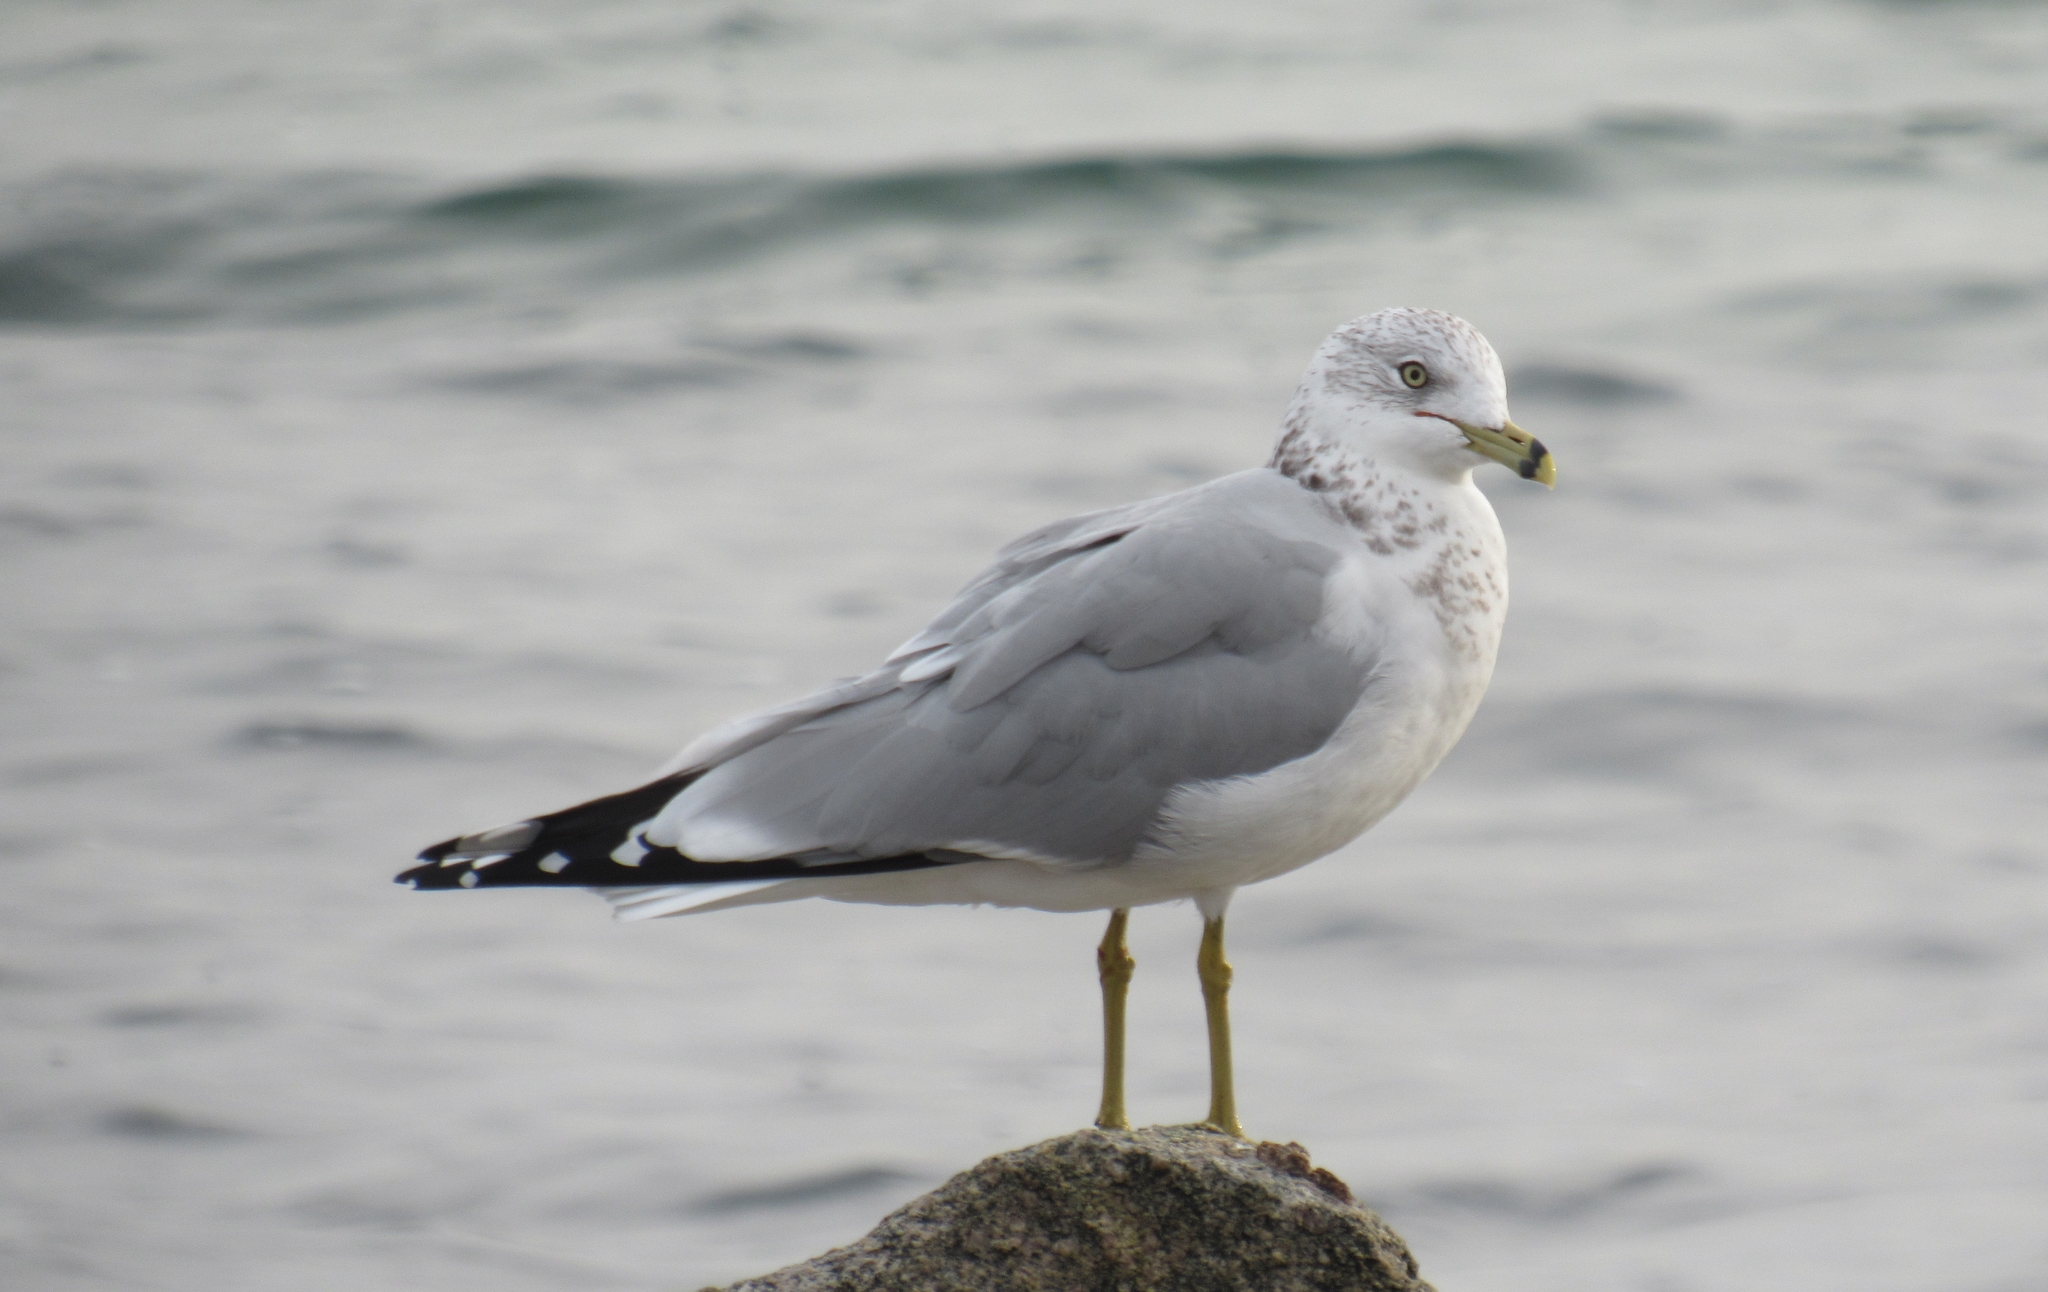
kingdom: Animalia
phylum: Chordata
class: Aves
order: Charadriiformes
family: Laridae
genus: Larus
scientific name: Larus delawarensis
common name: Ring-billed gull
